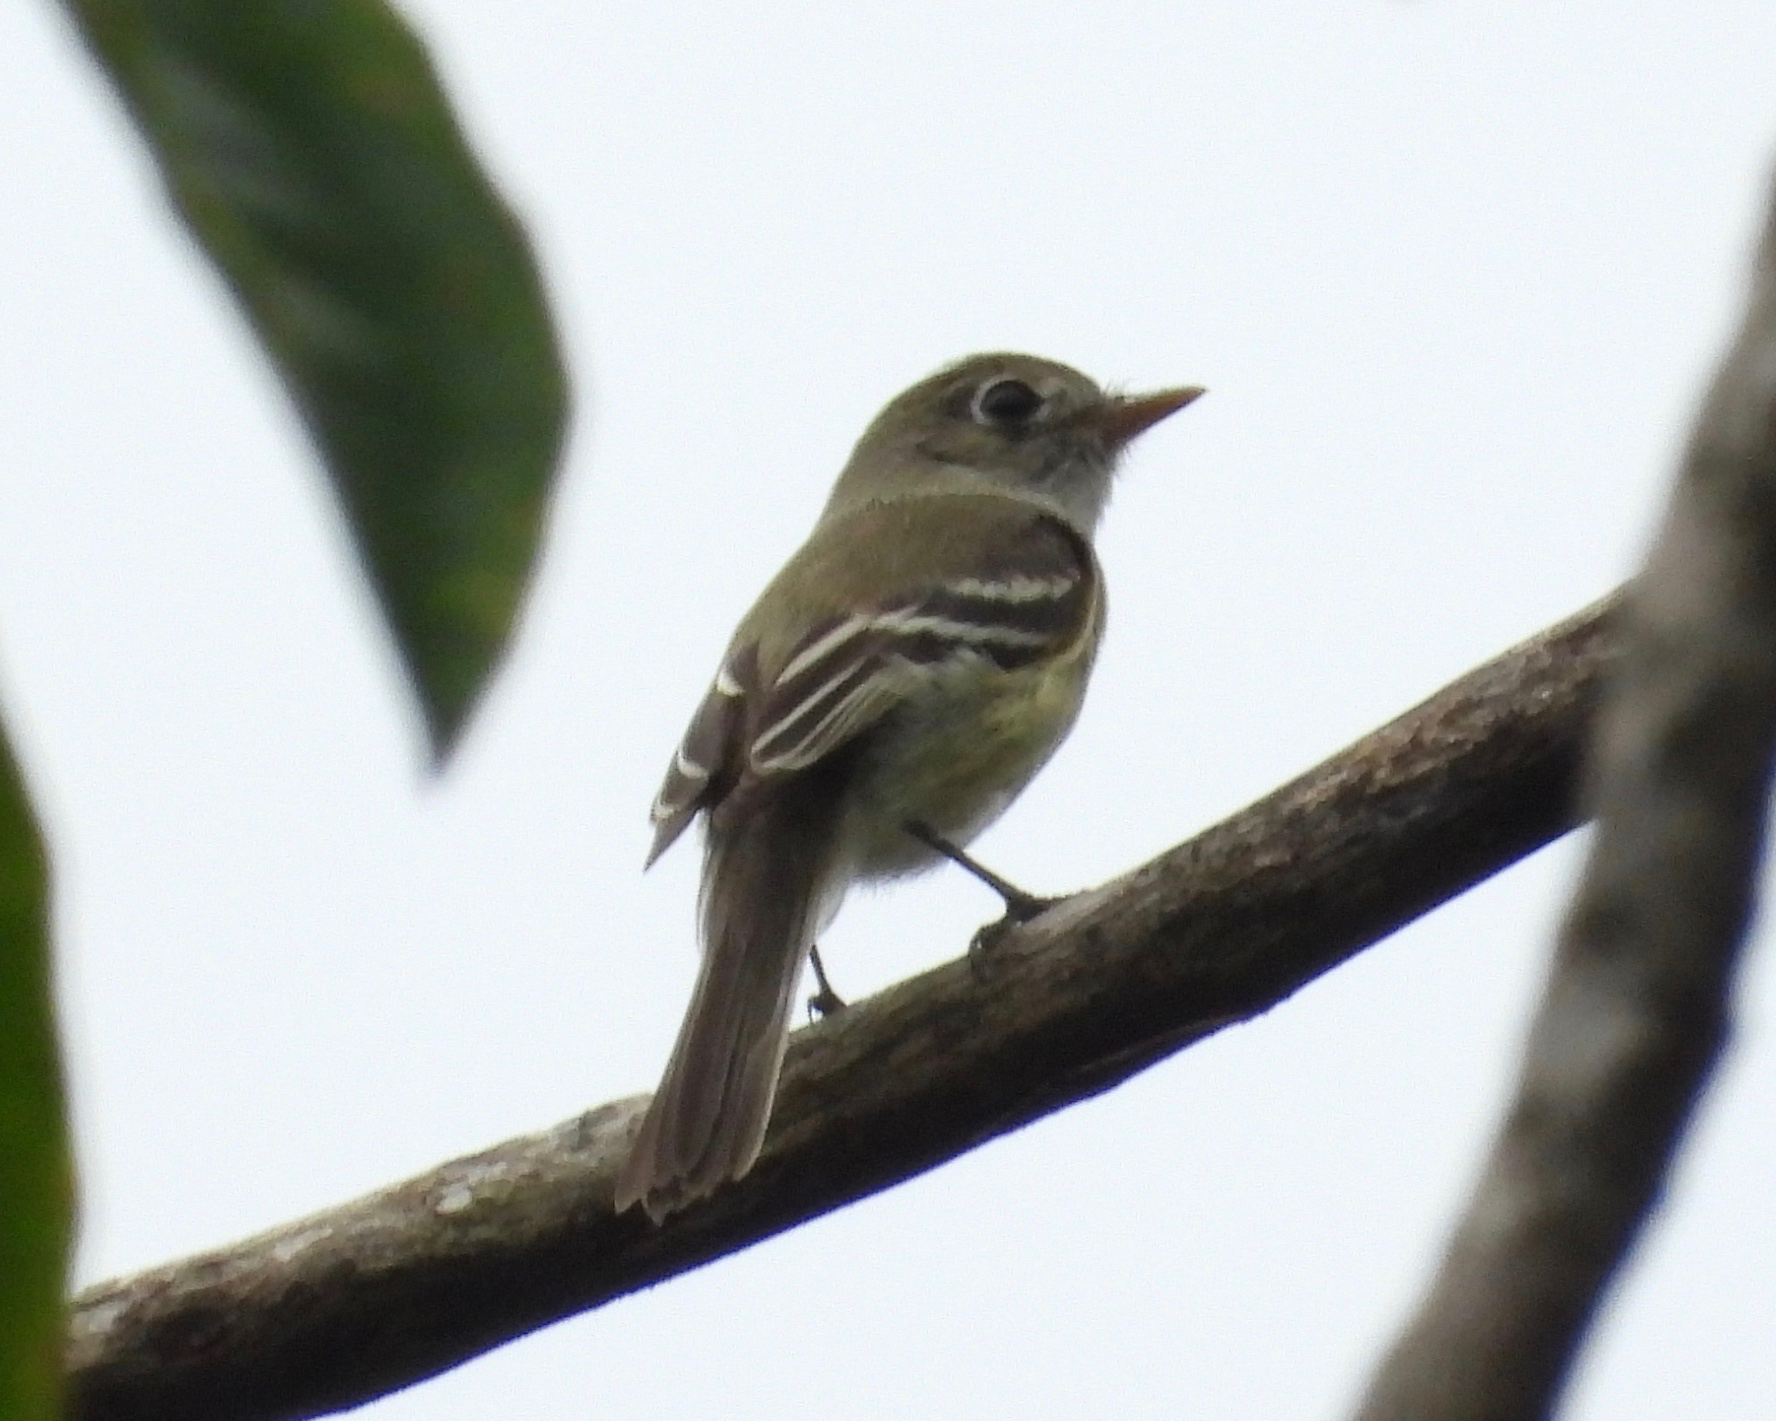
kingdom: Animalia
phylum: Chordata
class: Aves
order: Passeriformes
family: Tyrannidae
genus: Empidonax
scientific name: Empidonax minimus
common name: Least flycatcher
